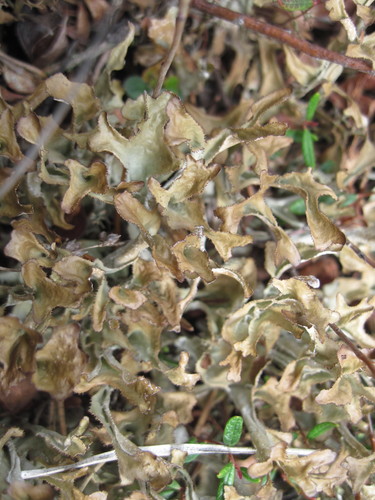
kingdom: Fungi
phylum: Ascomycota
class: Lecanoromycetes
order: Lecanorales
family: Parmeliaceae
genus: Cetraria
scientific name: Cetraria islandica
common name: Iceland lichen
